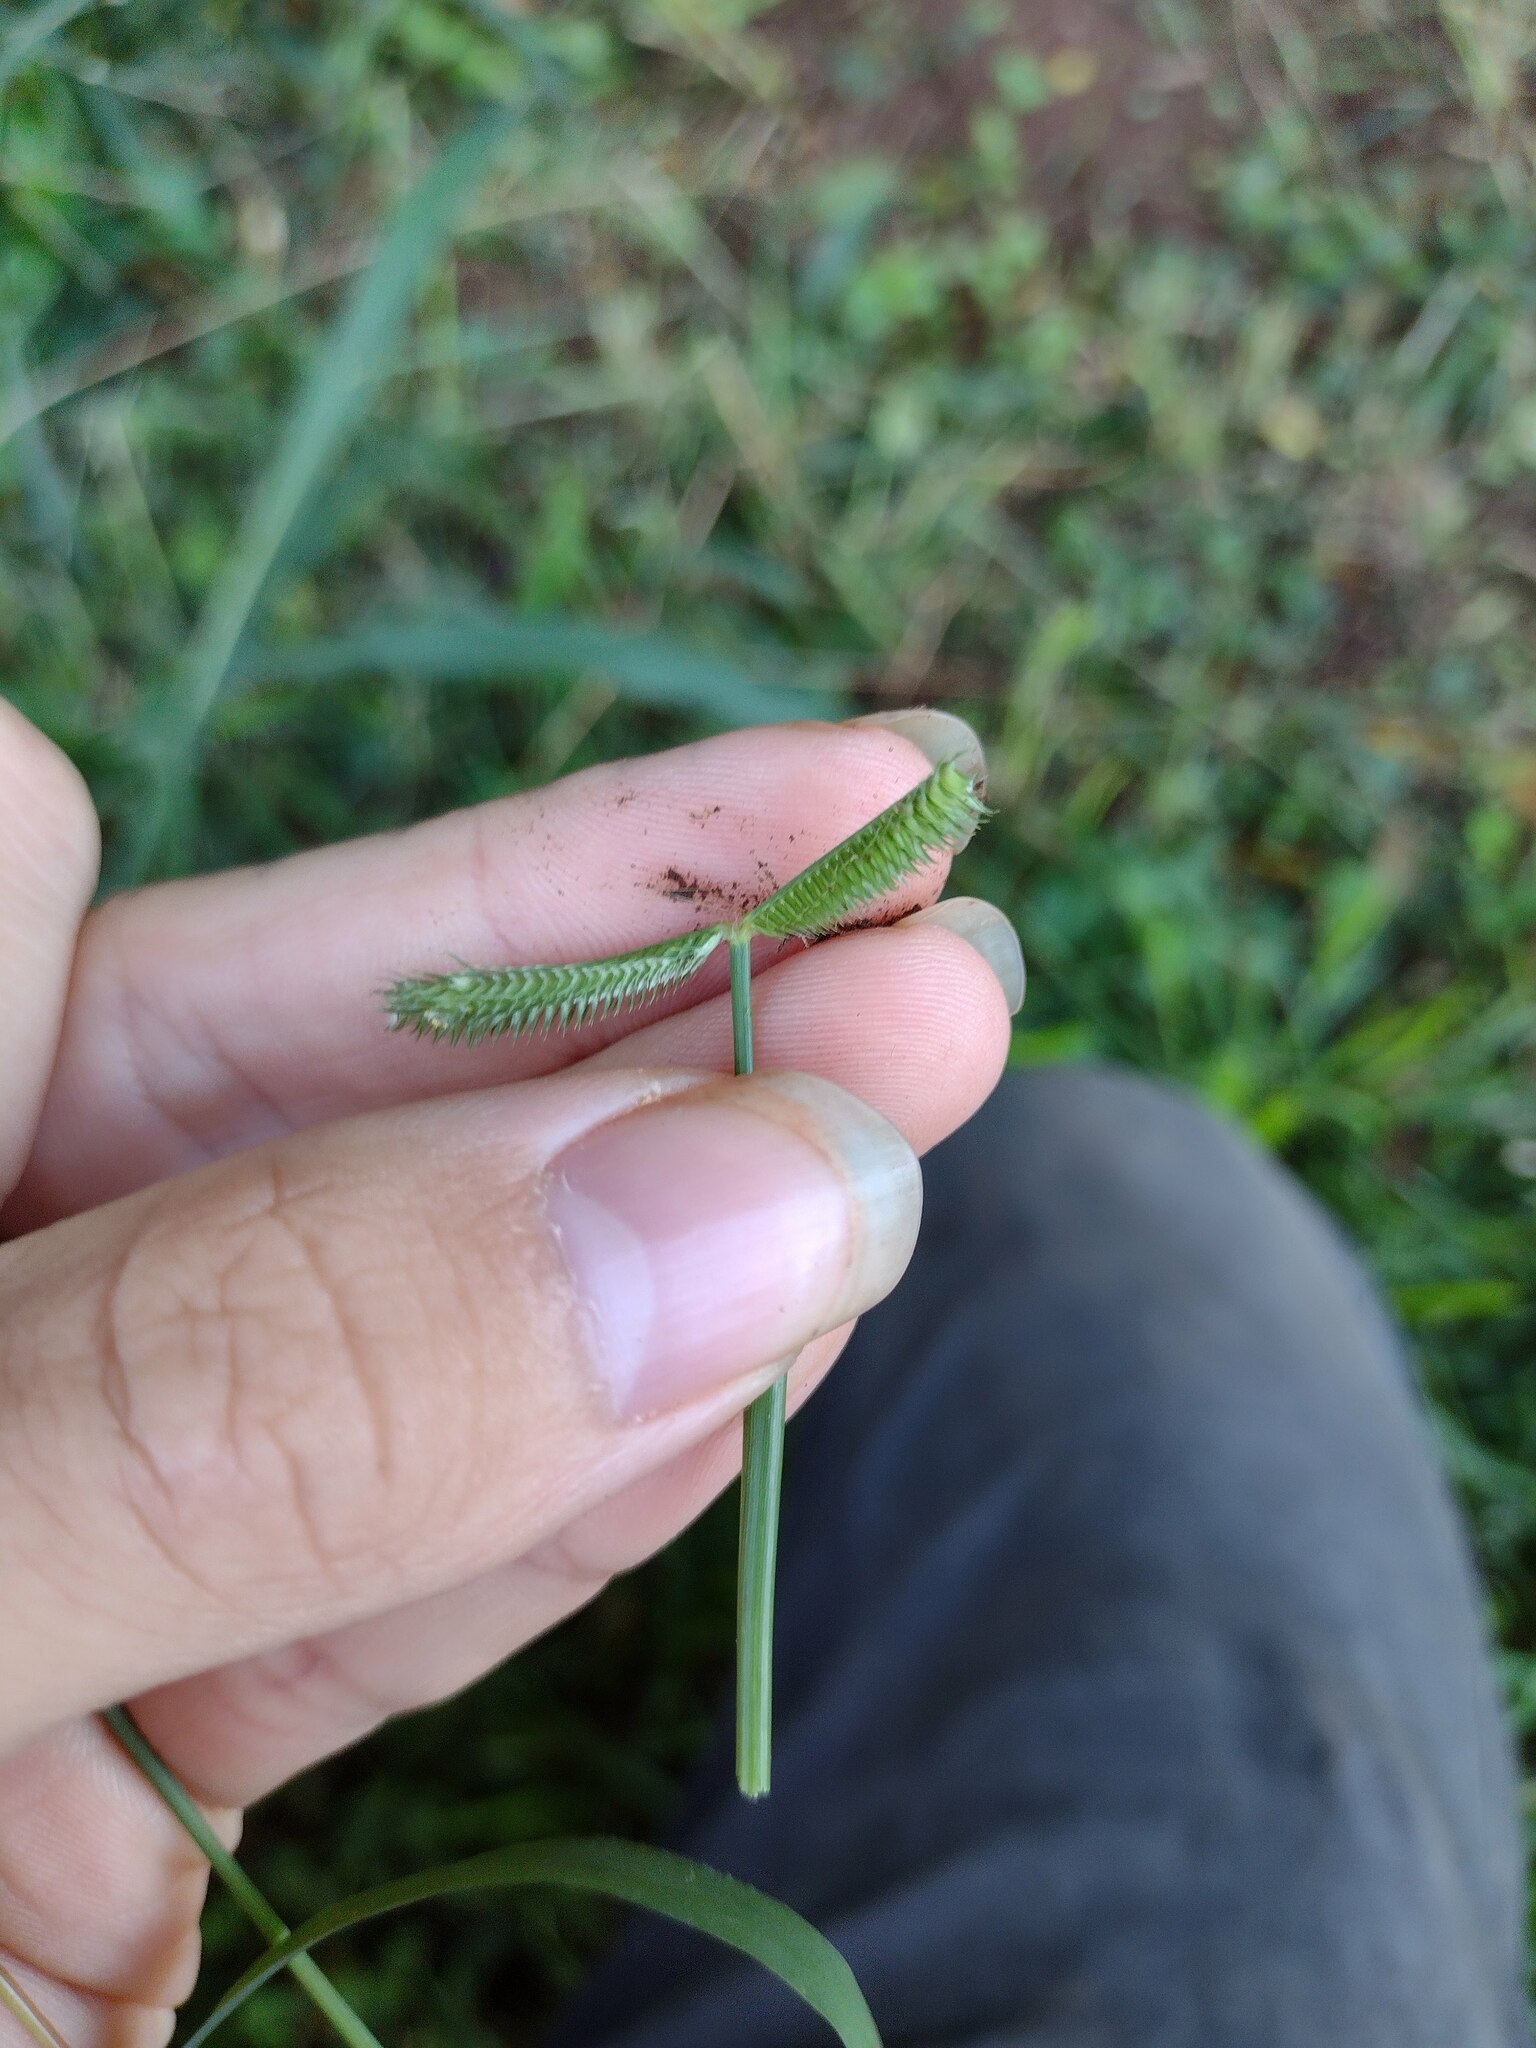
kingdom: Plantae
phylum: Tracheophyta
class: Liliopsida
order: Poales
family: Poaceae
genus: Dactyloctenium
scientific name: Dactyloctenium aegyptium
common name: Egyptian grass
